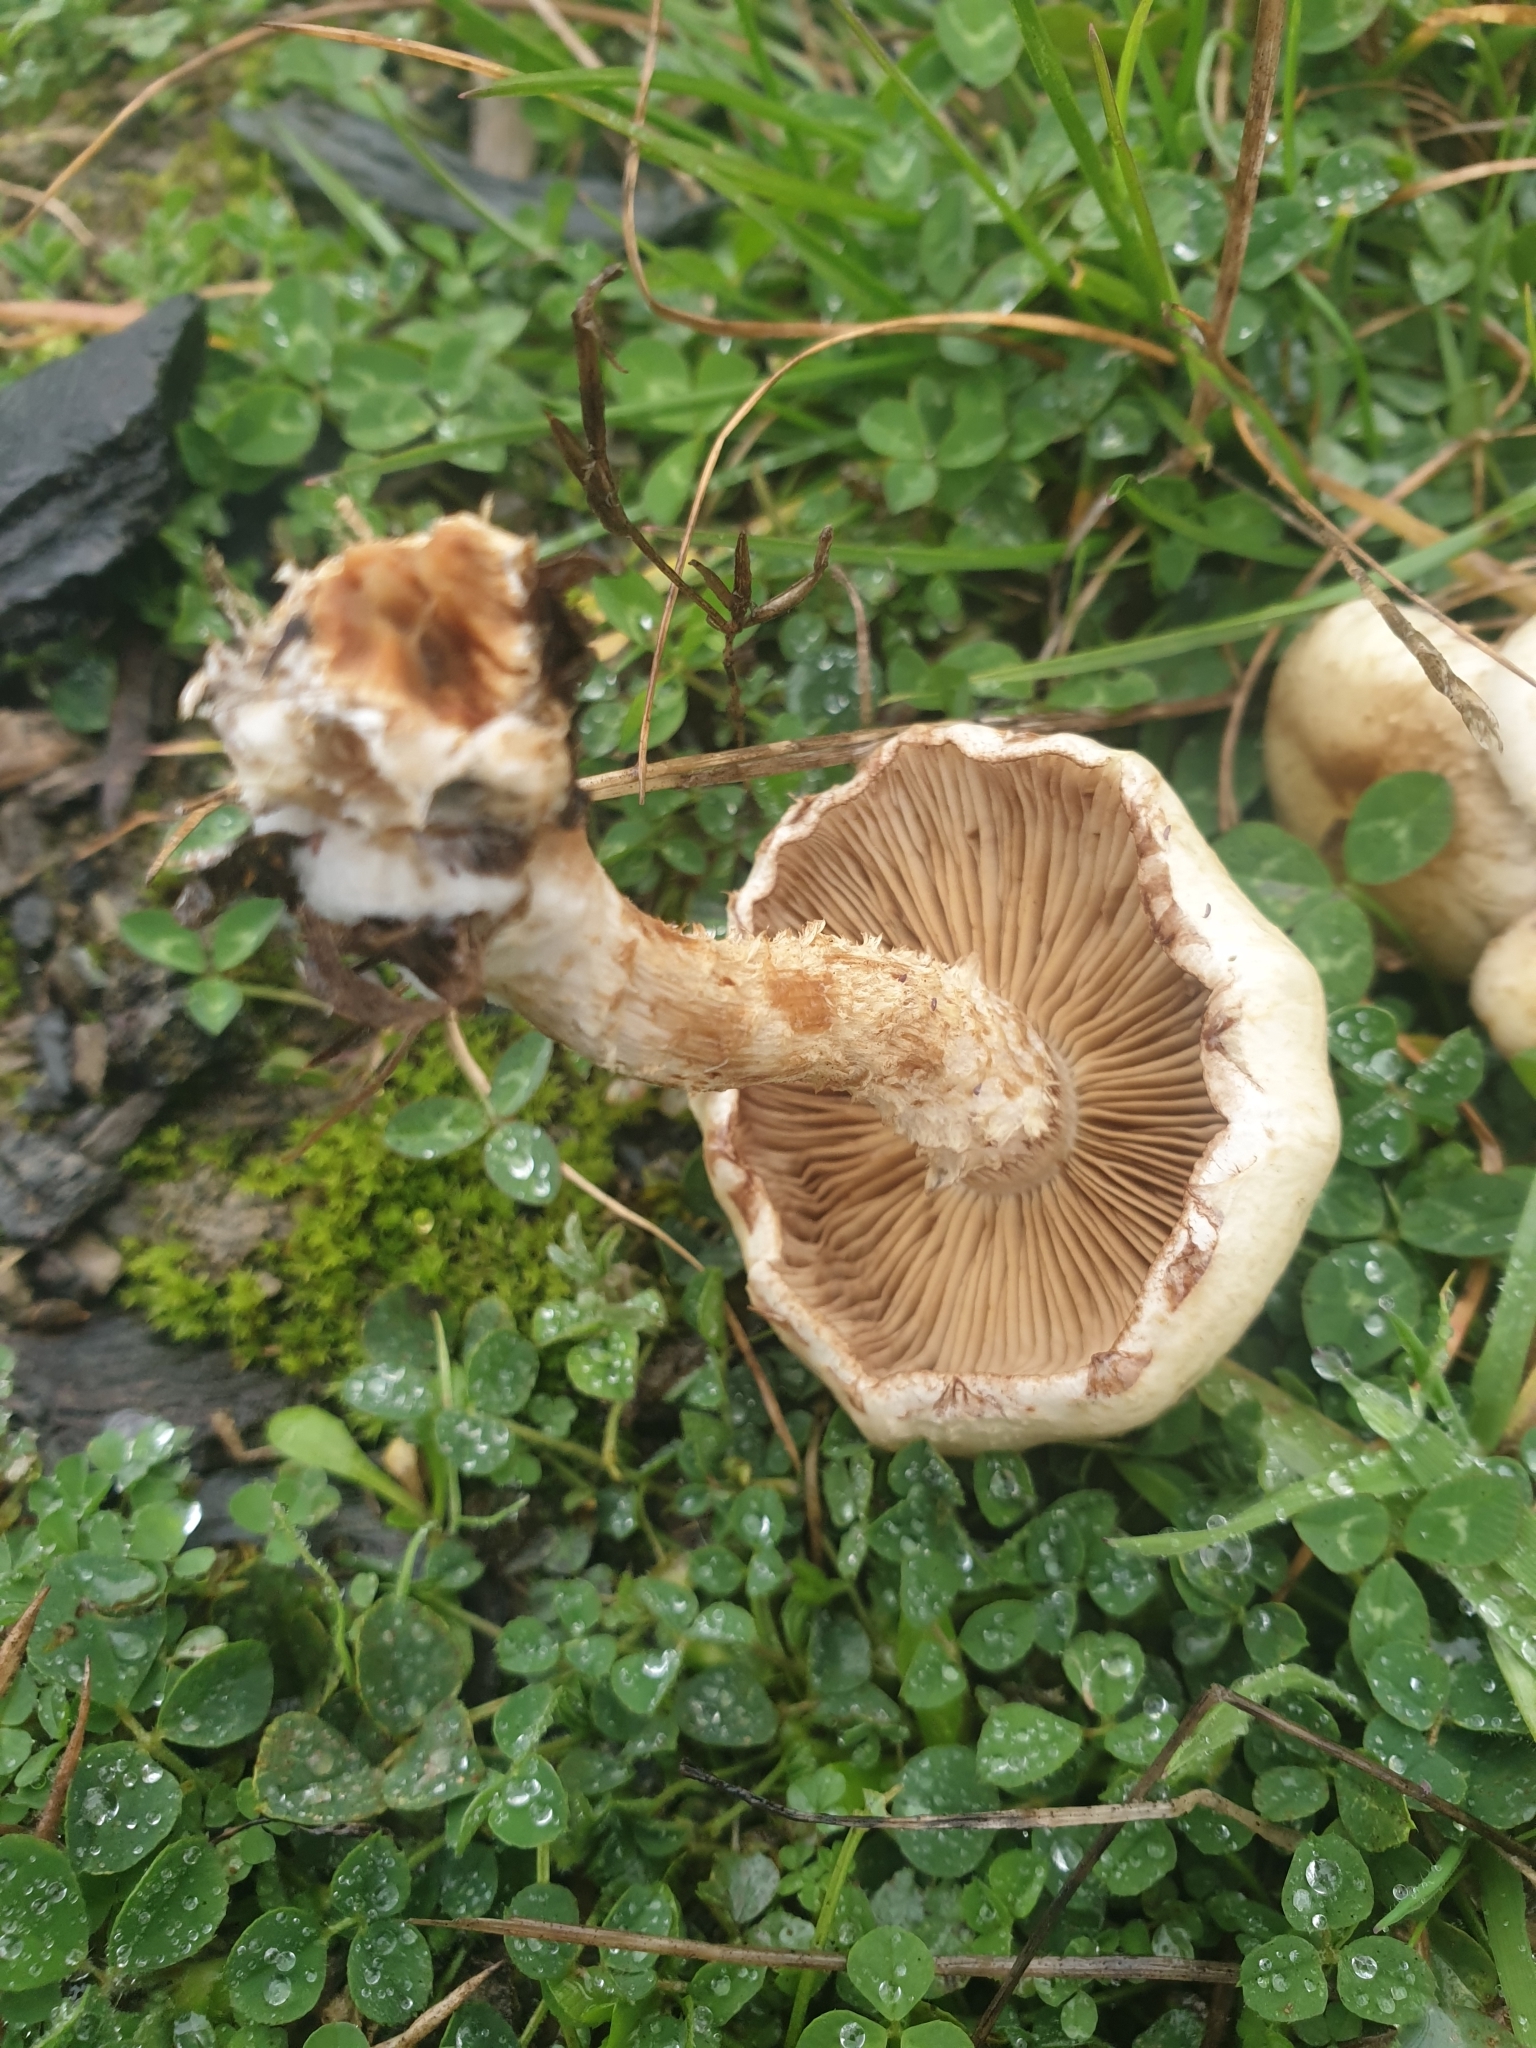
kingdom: Fungi
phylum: Basidiomycota
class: Agaricomycetes
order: Agaricales
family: Strophariaceae
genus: Pholiota
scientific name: Pholiota gummosa
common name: Sticky scalycap
